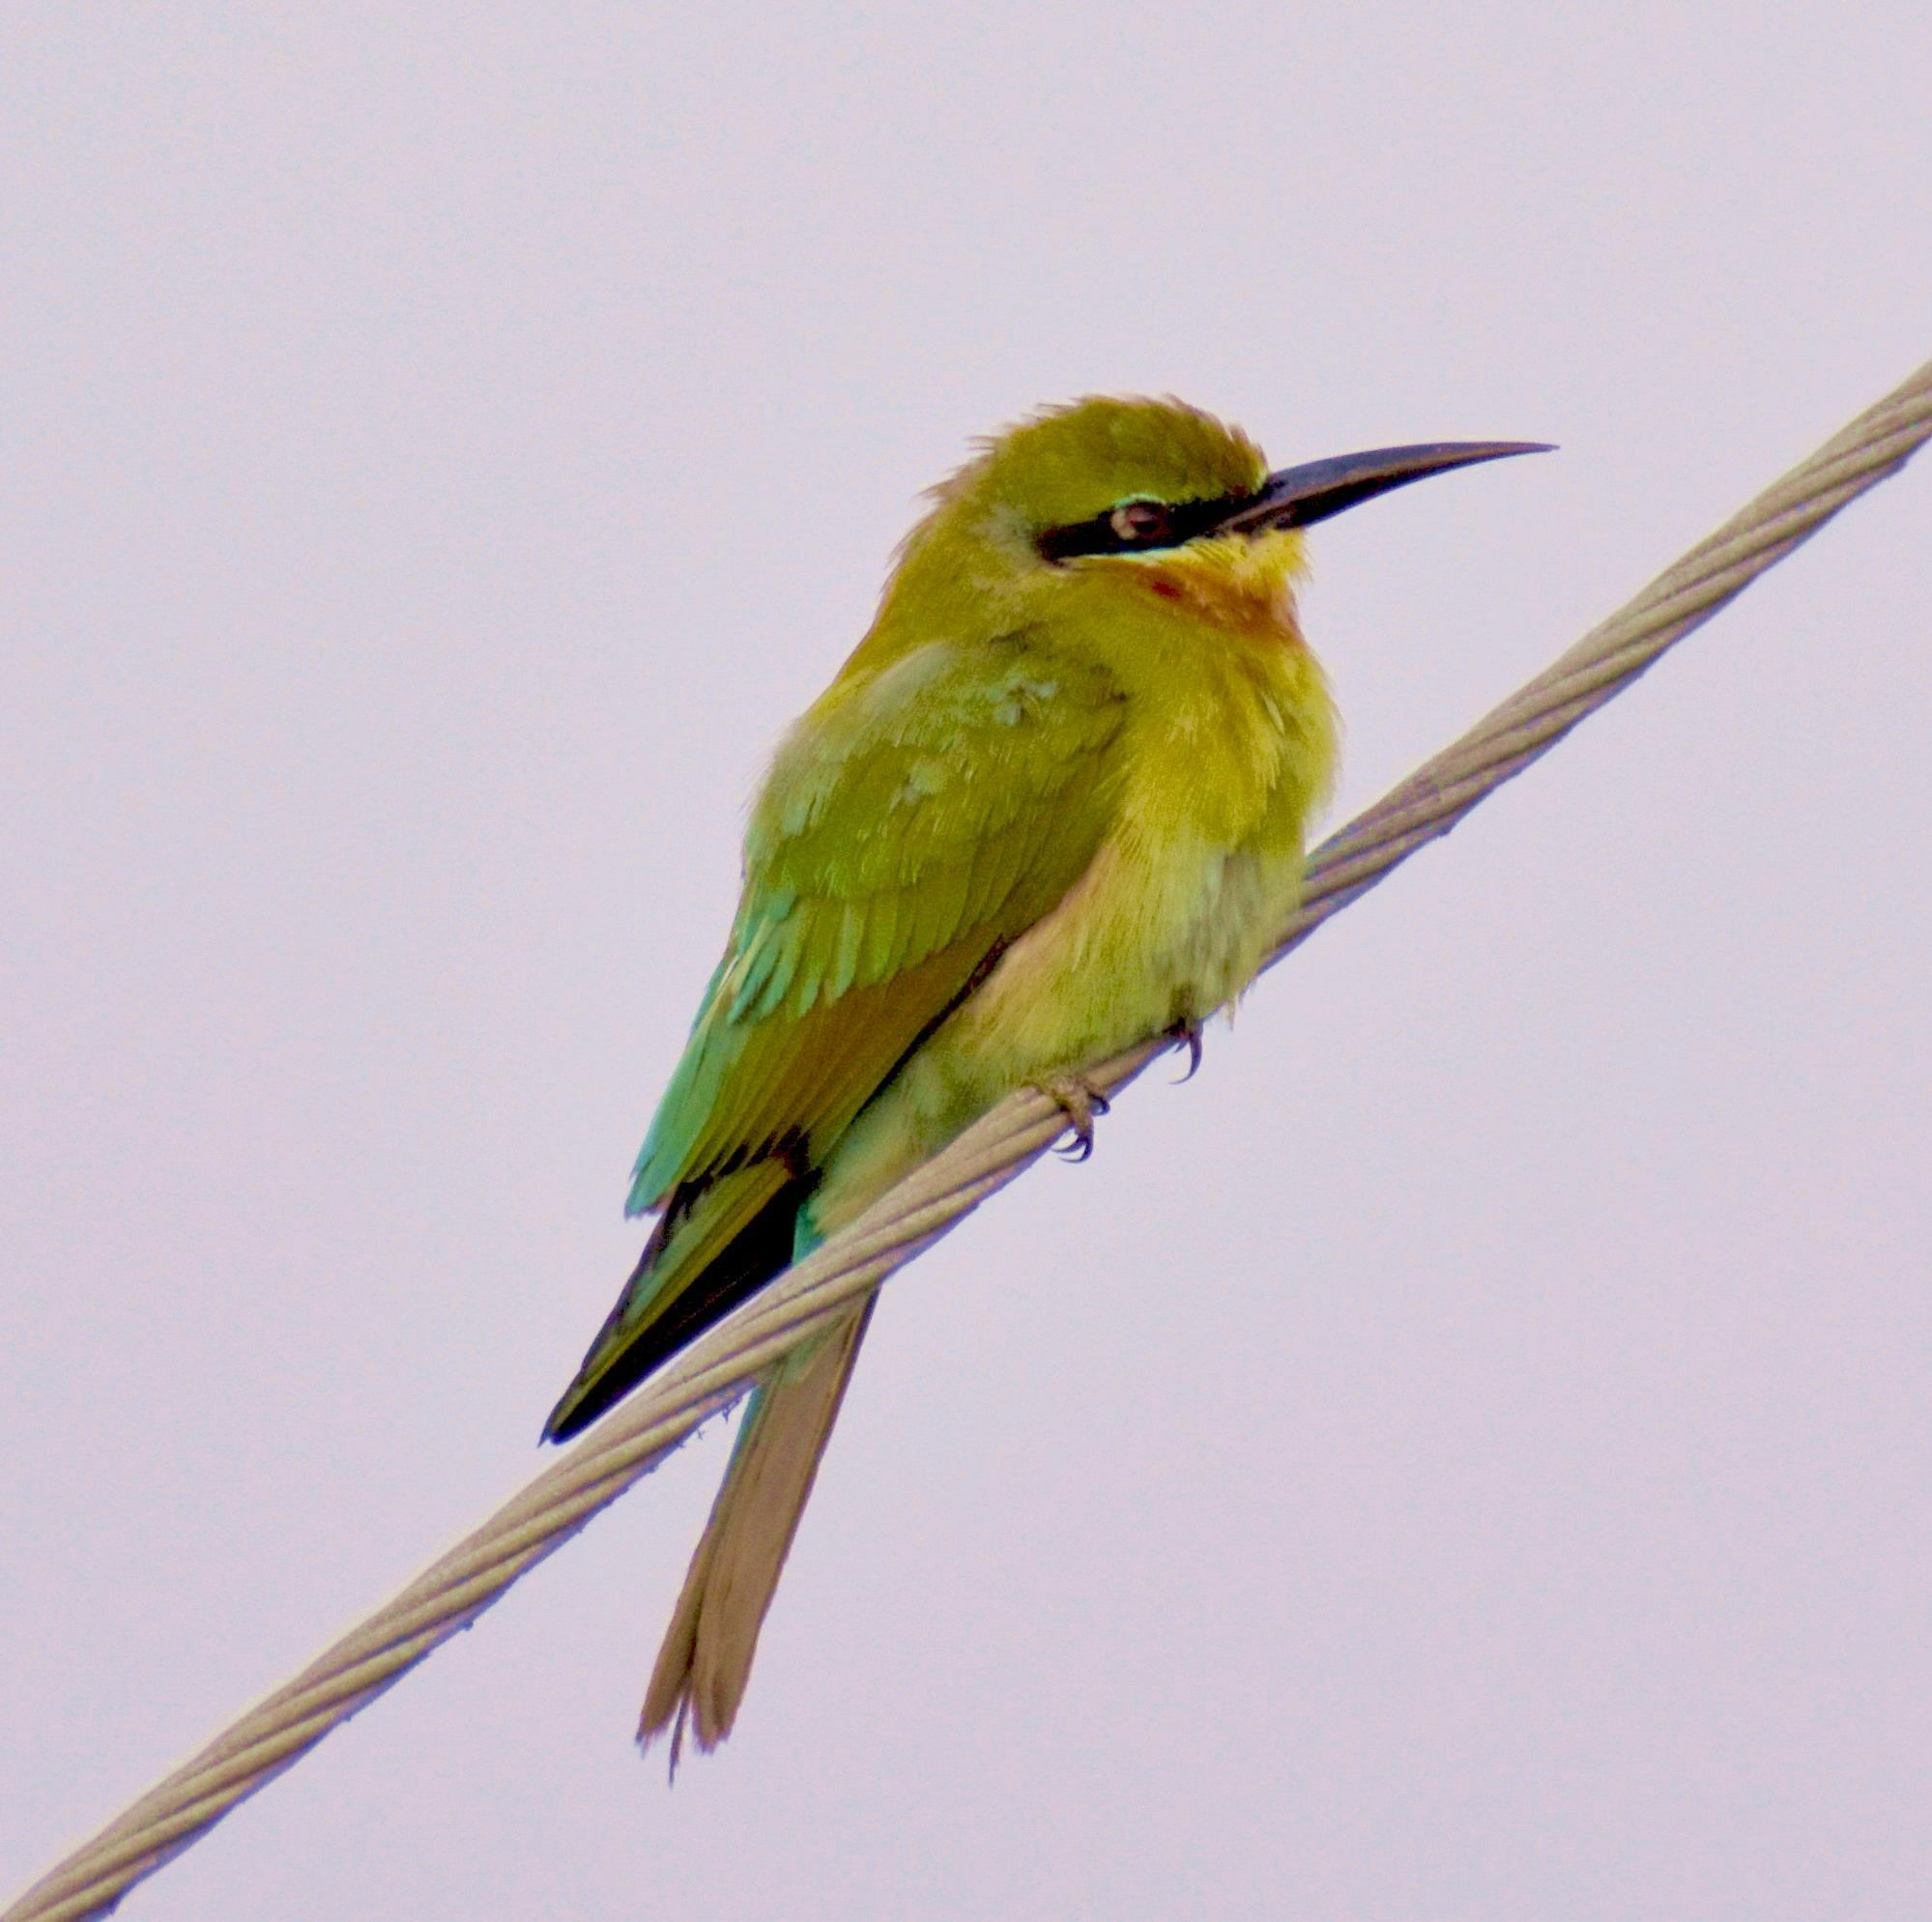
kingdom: Animalia
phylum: Chordata
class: Aves
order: Coraciiformes
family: Meropidae
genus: Merops
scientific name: Merops orientalis
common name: Green bee-eater
